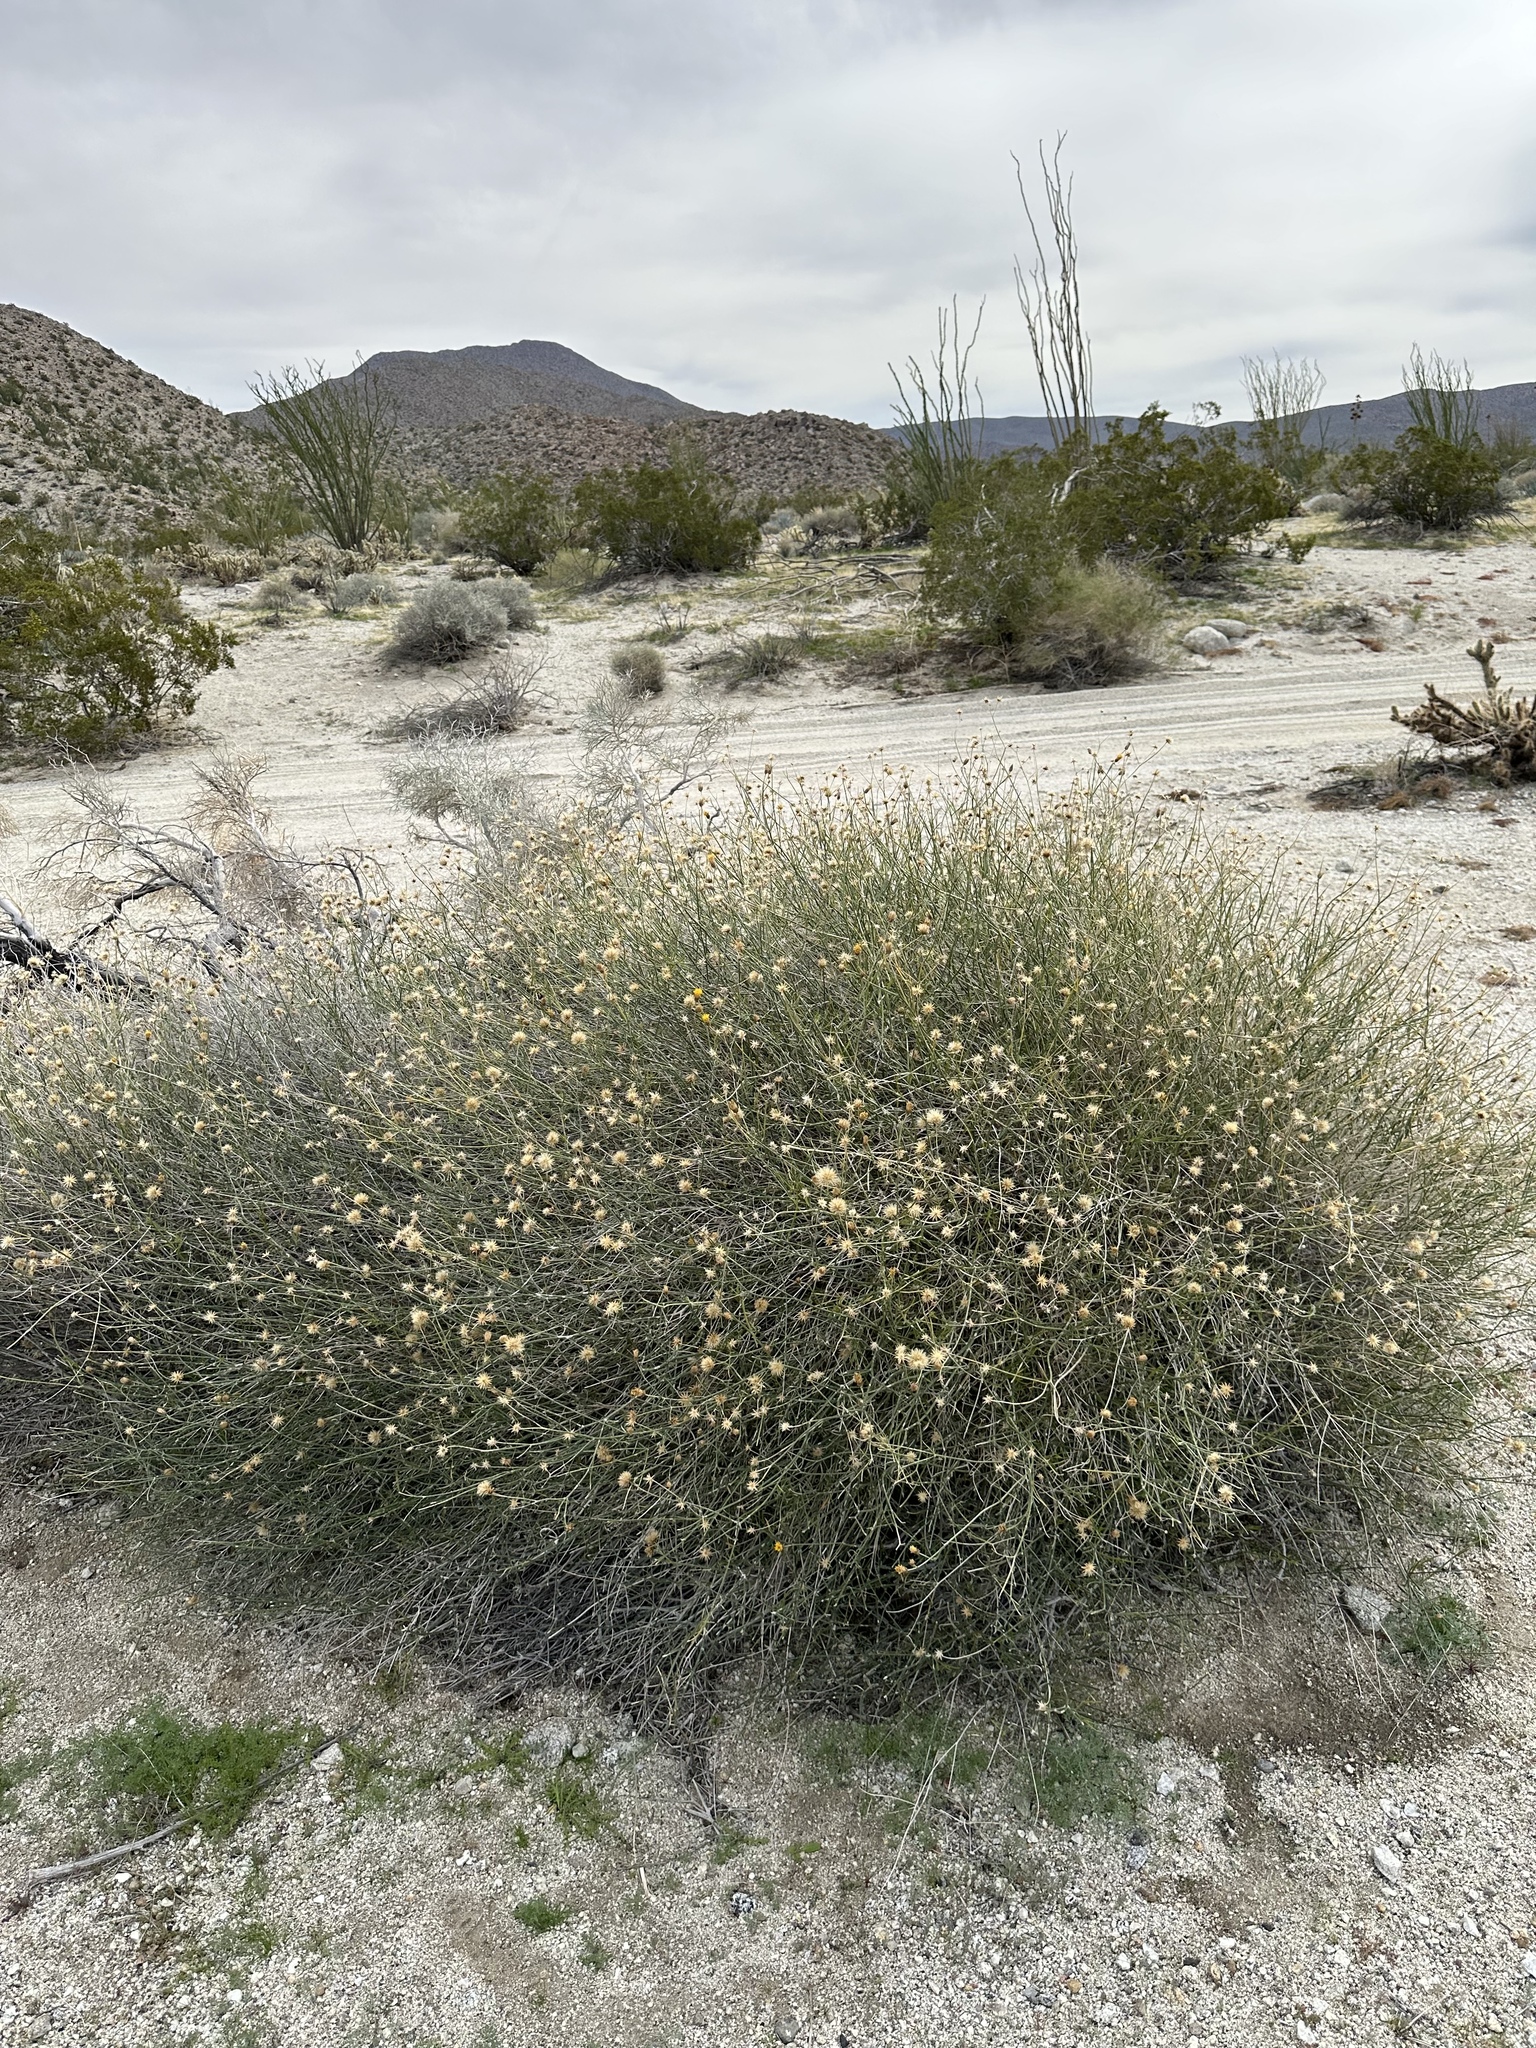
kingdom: Plantae
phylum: Tracheophyta
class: Magnoliopsida
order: Asterales
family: Asteraceae
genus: Bebbia
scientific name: Bebbia juncea
